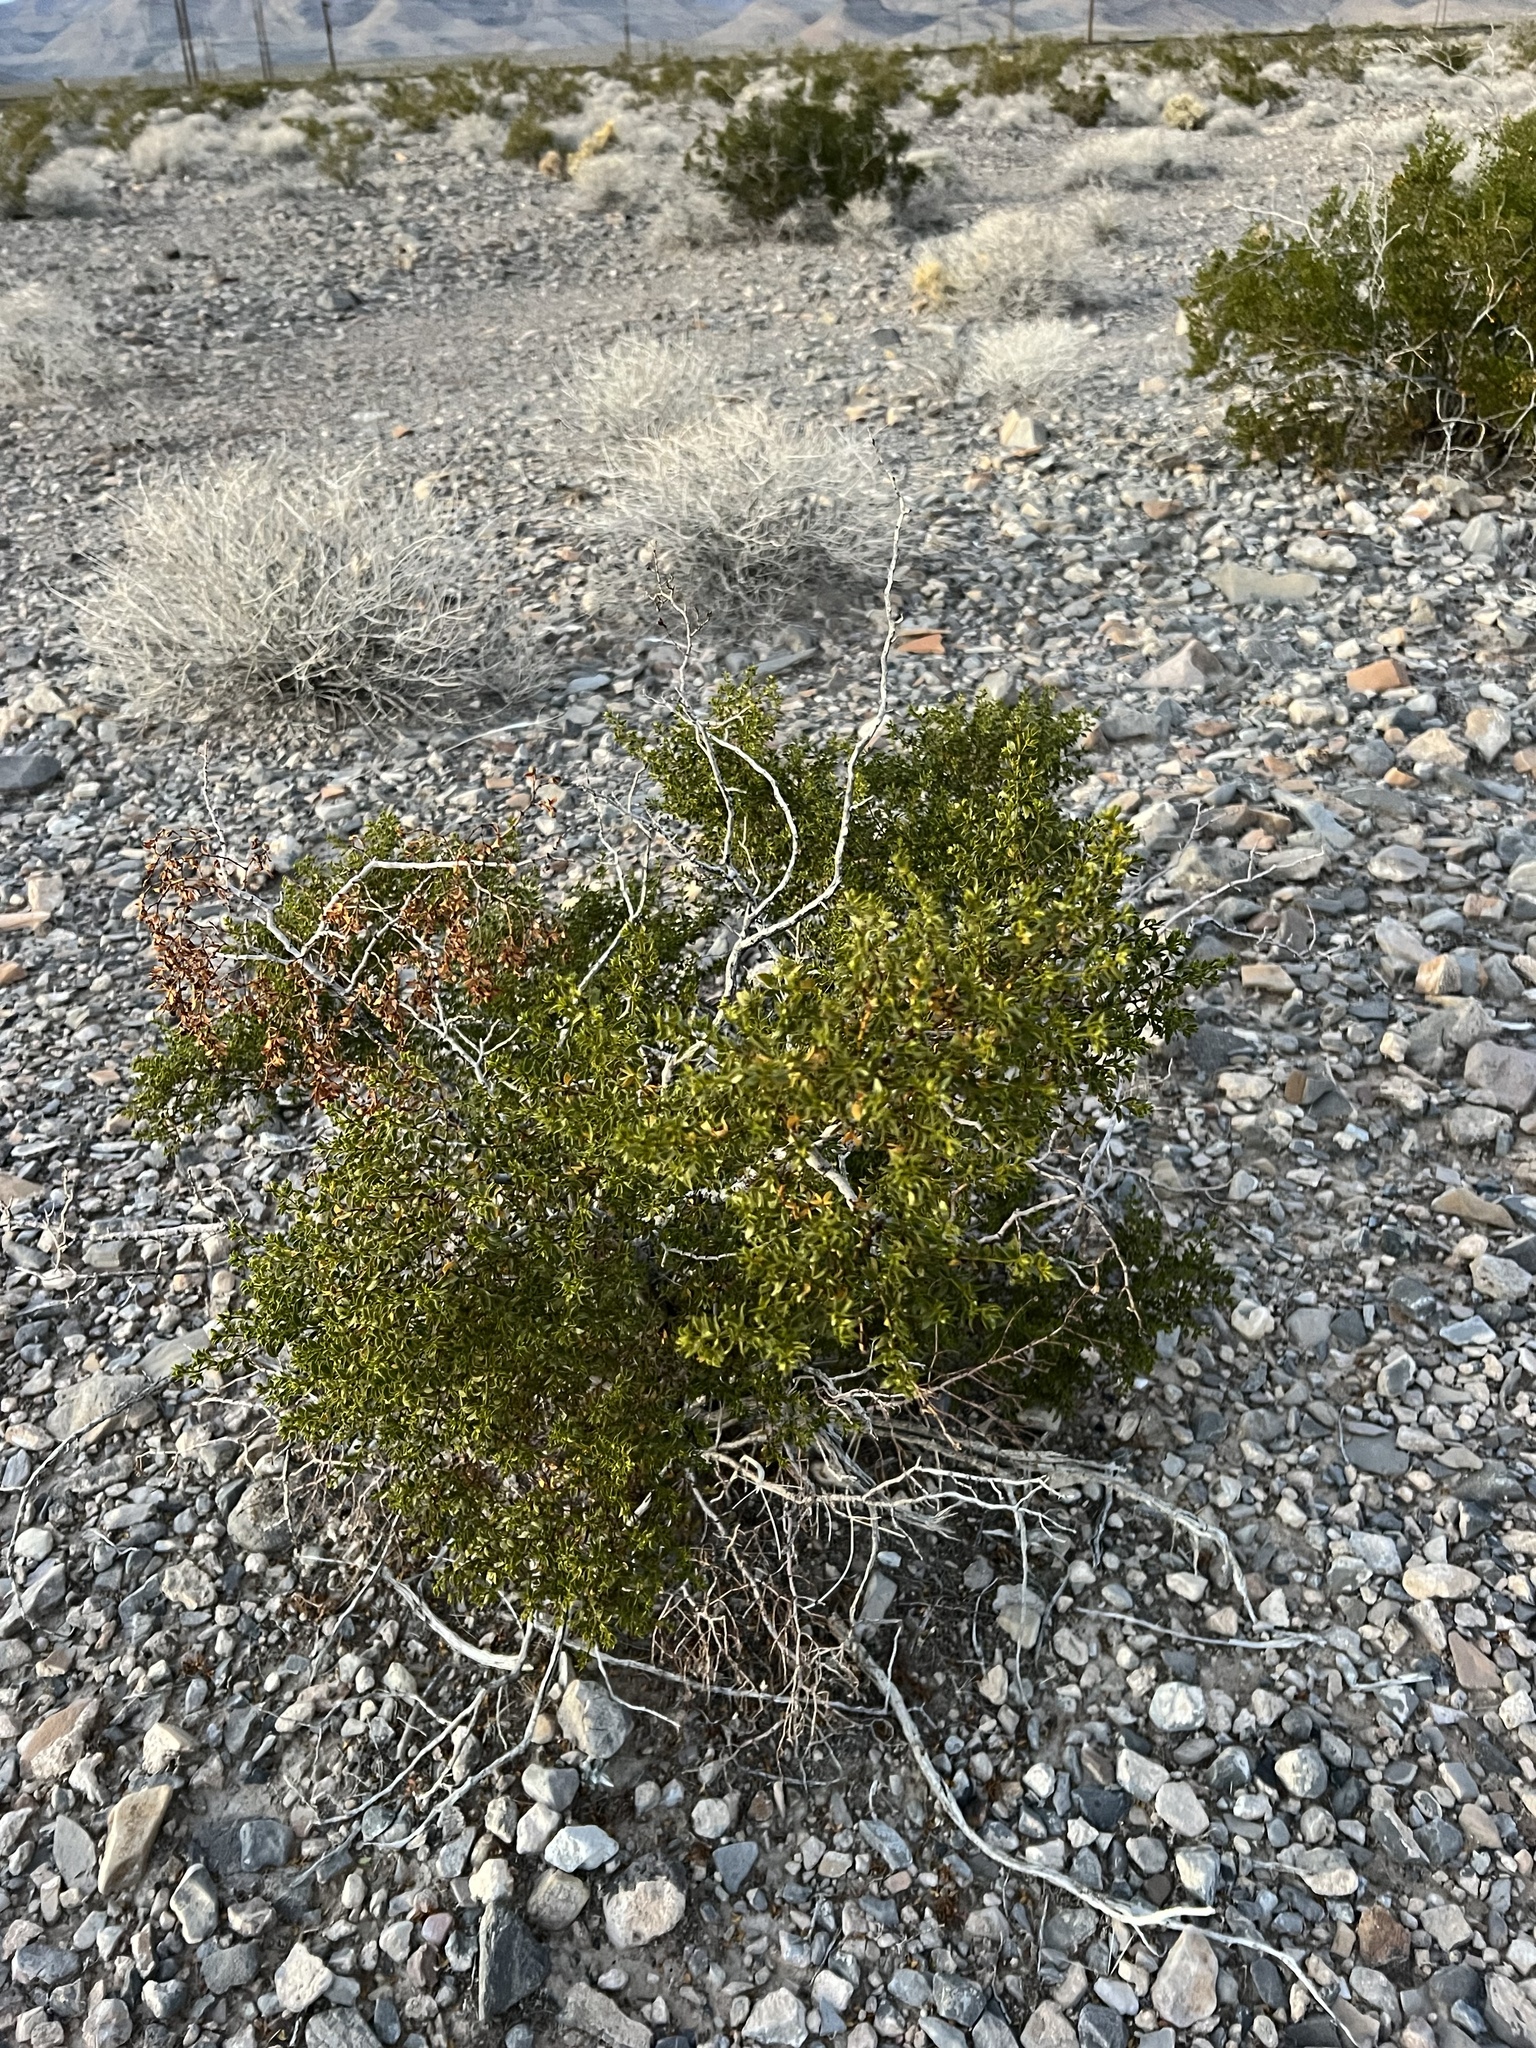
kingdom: Plantae
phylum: Tracheophyta
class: Magnoliopsida
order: Zygophyllales
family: Zygophyllaceae
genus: Larrea
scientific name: Larrea tridentata
